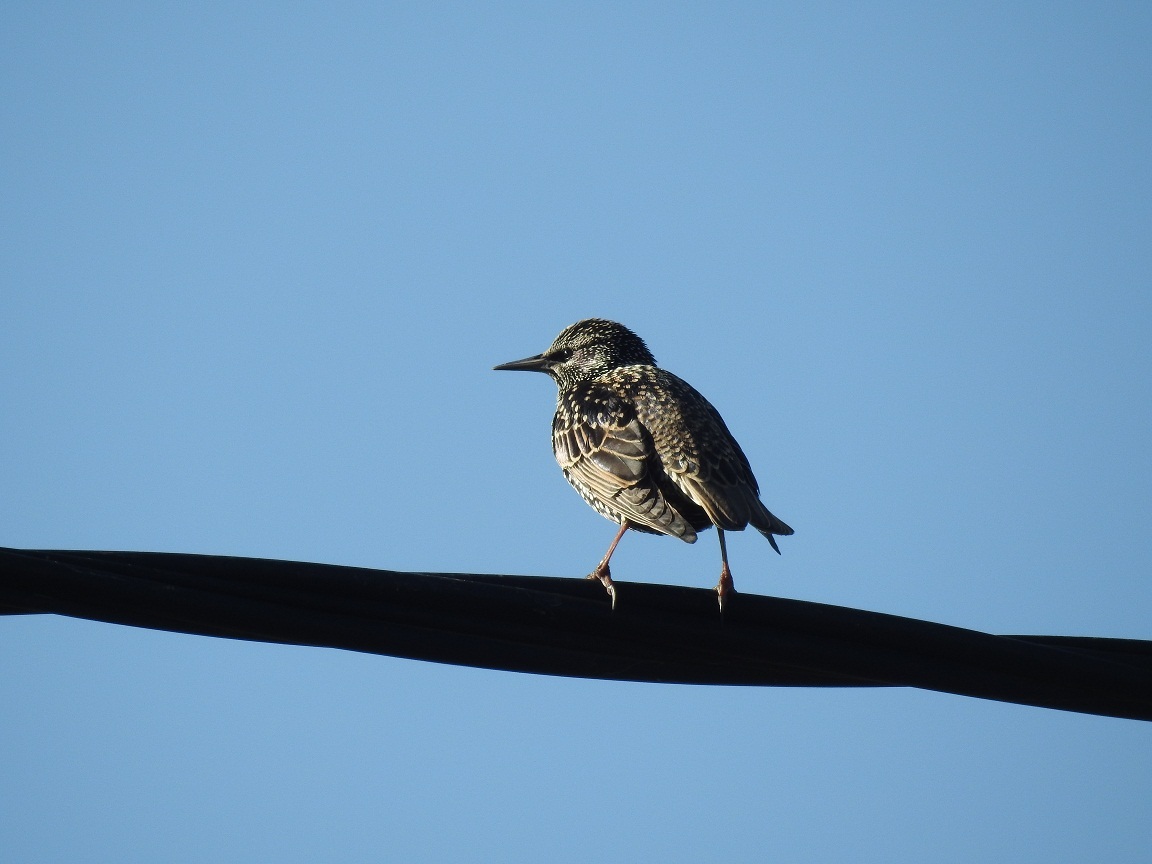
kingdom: Animalia
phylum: Chordata
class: Aves
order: Passeriformes
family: Sturnidae
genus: Sturnus
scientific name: Sturnus vulgaris
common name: Common starling
